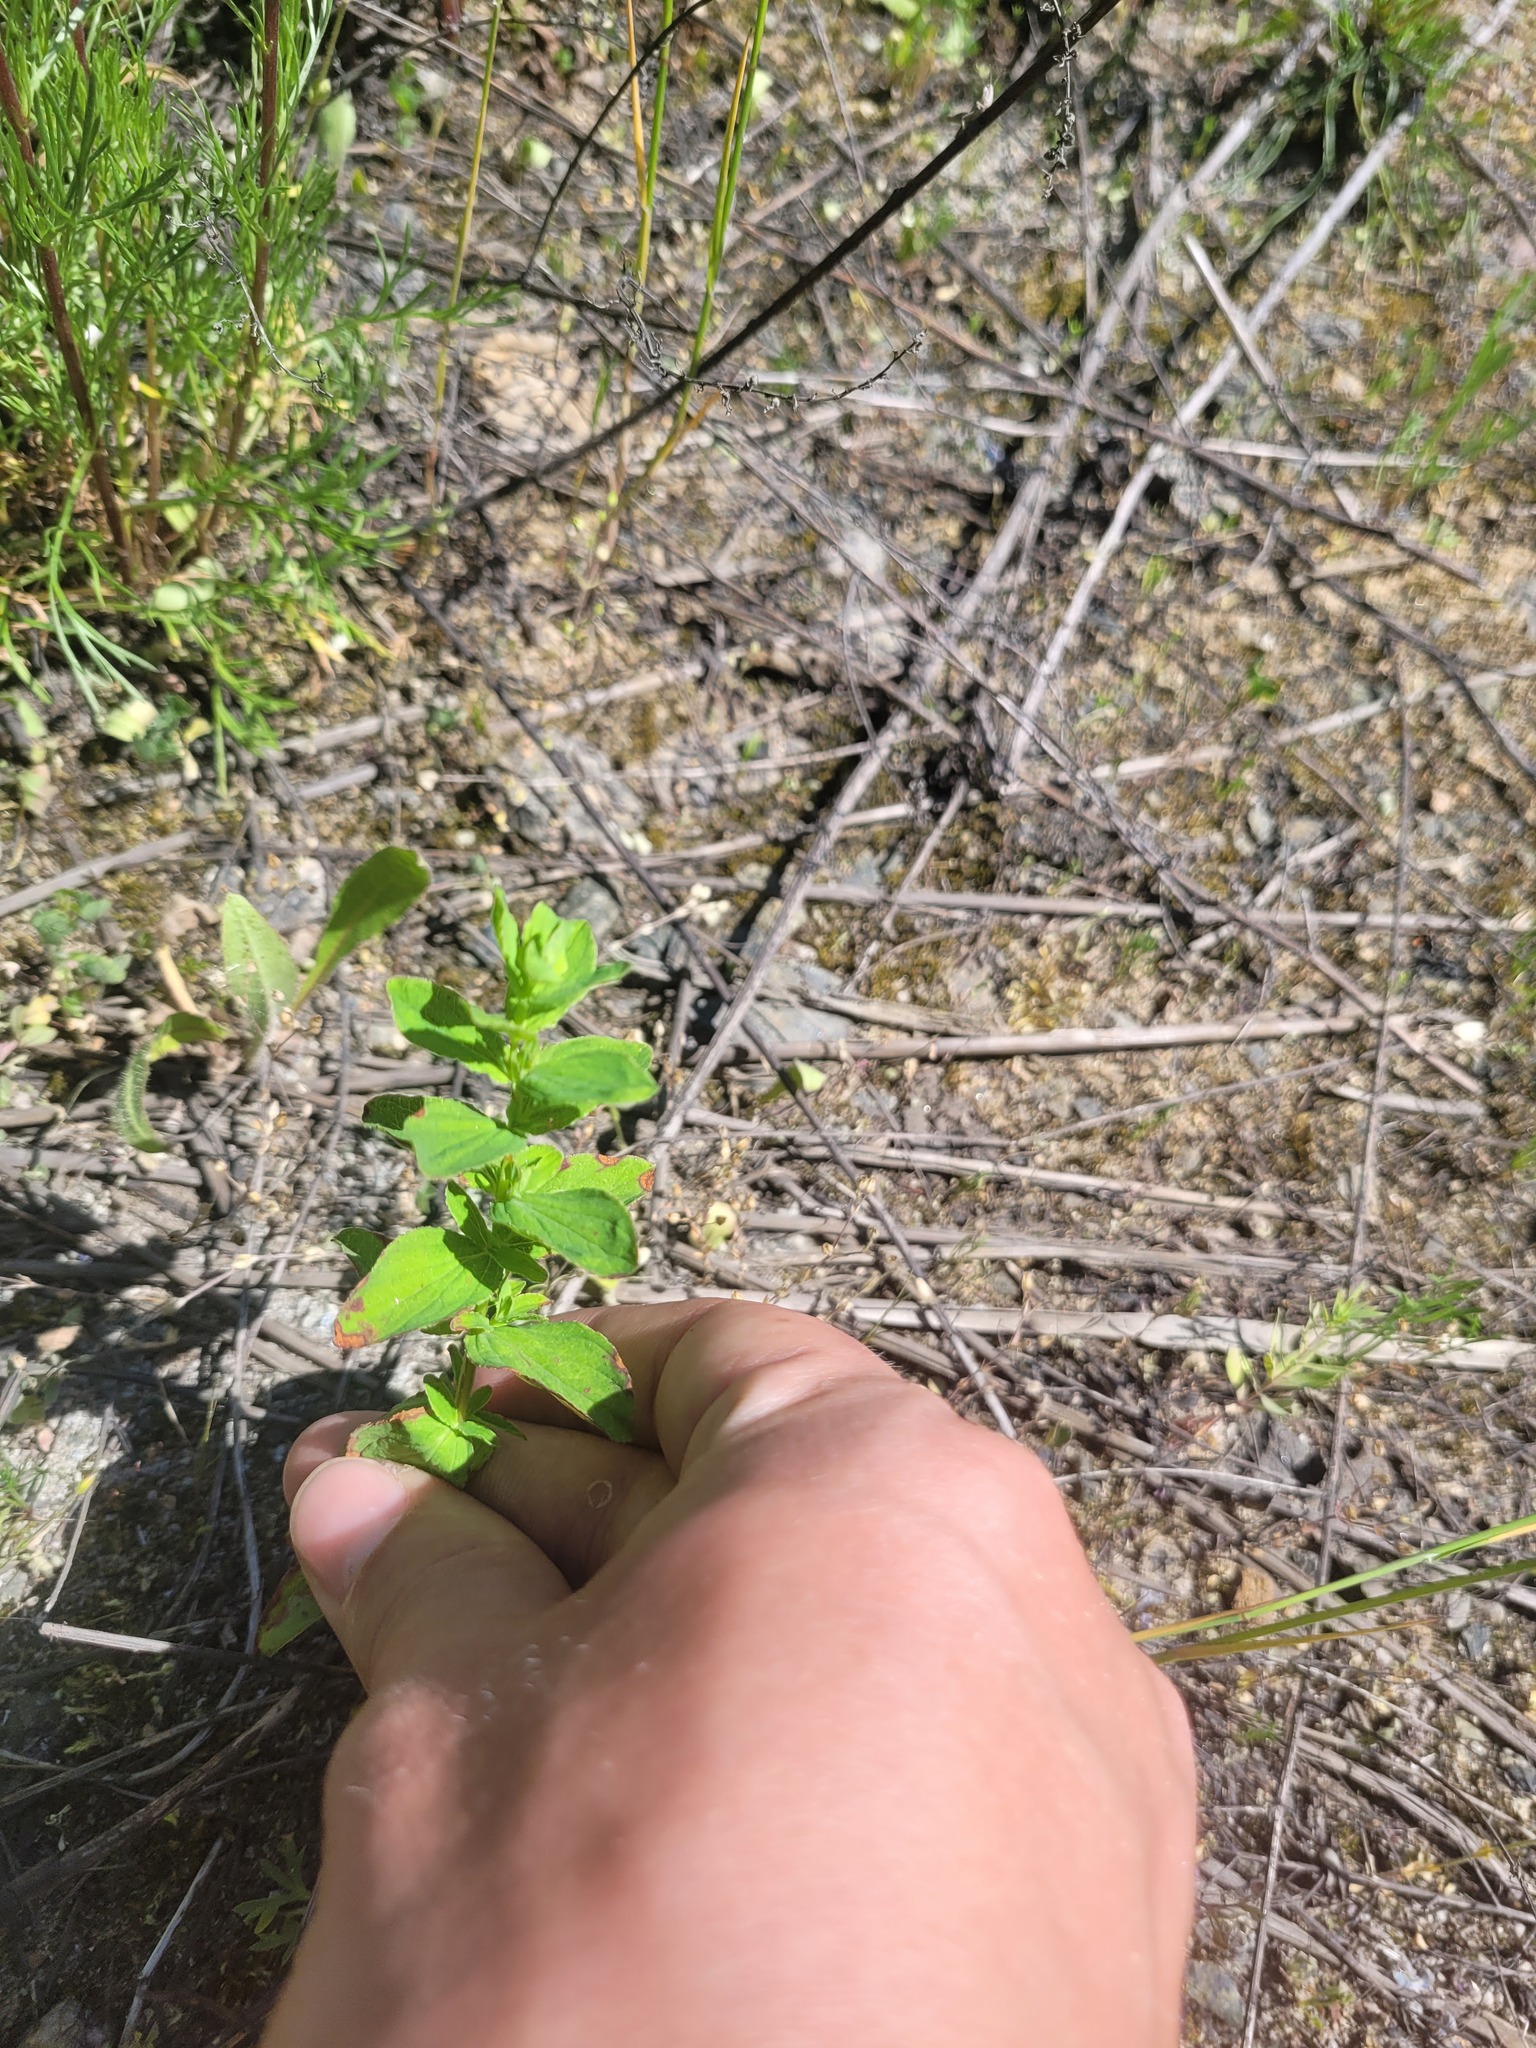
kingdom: Plantae
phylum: Tracheophyta
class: Magnoliopsida
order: Malpighiales
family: Hypericaceae
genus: Hypericum
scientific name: Hypericum maculatum
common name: Imperforate st. john's-wort
